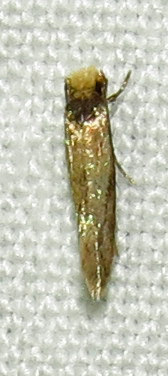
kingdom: Animalia
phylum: Arthropoda
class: Insecta
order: Lepidoptera
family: Meessiidae
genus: Homostinea
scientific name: Homostinea curviliniella
